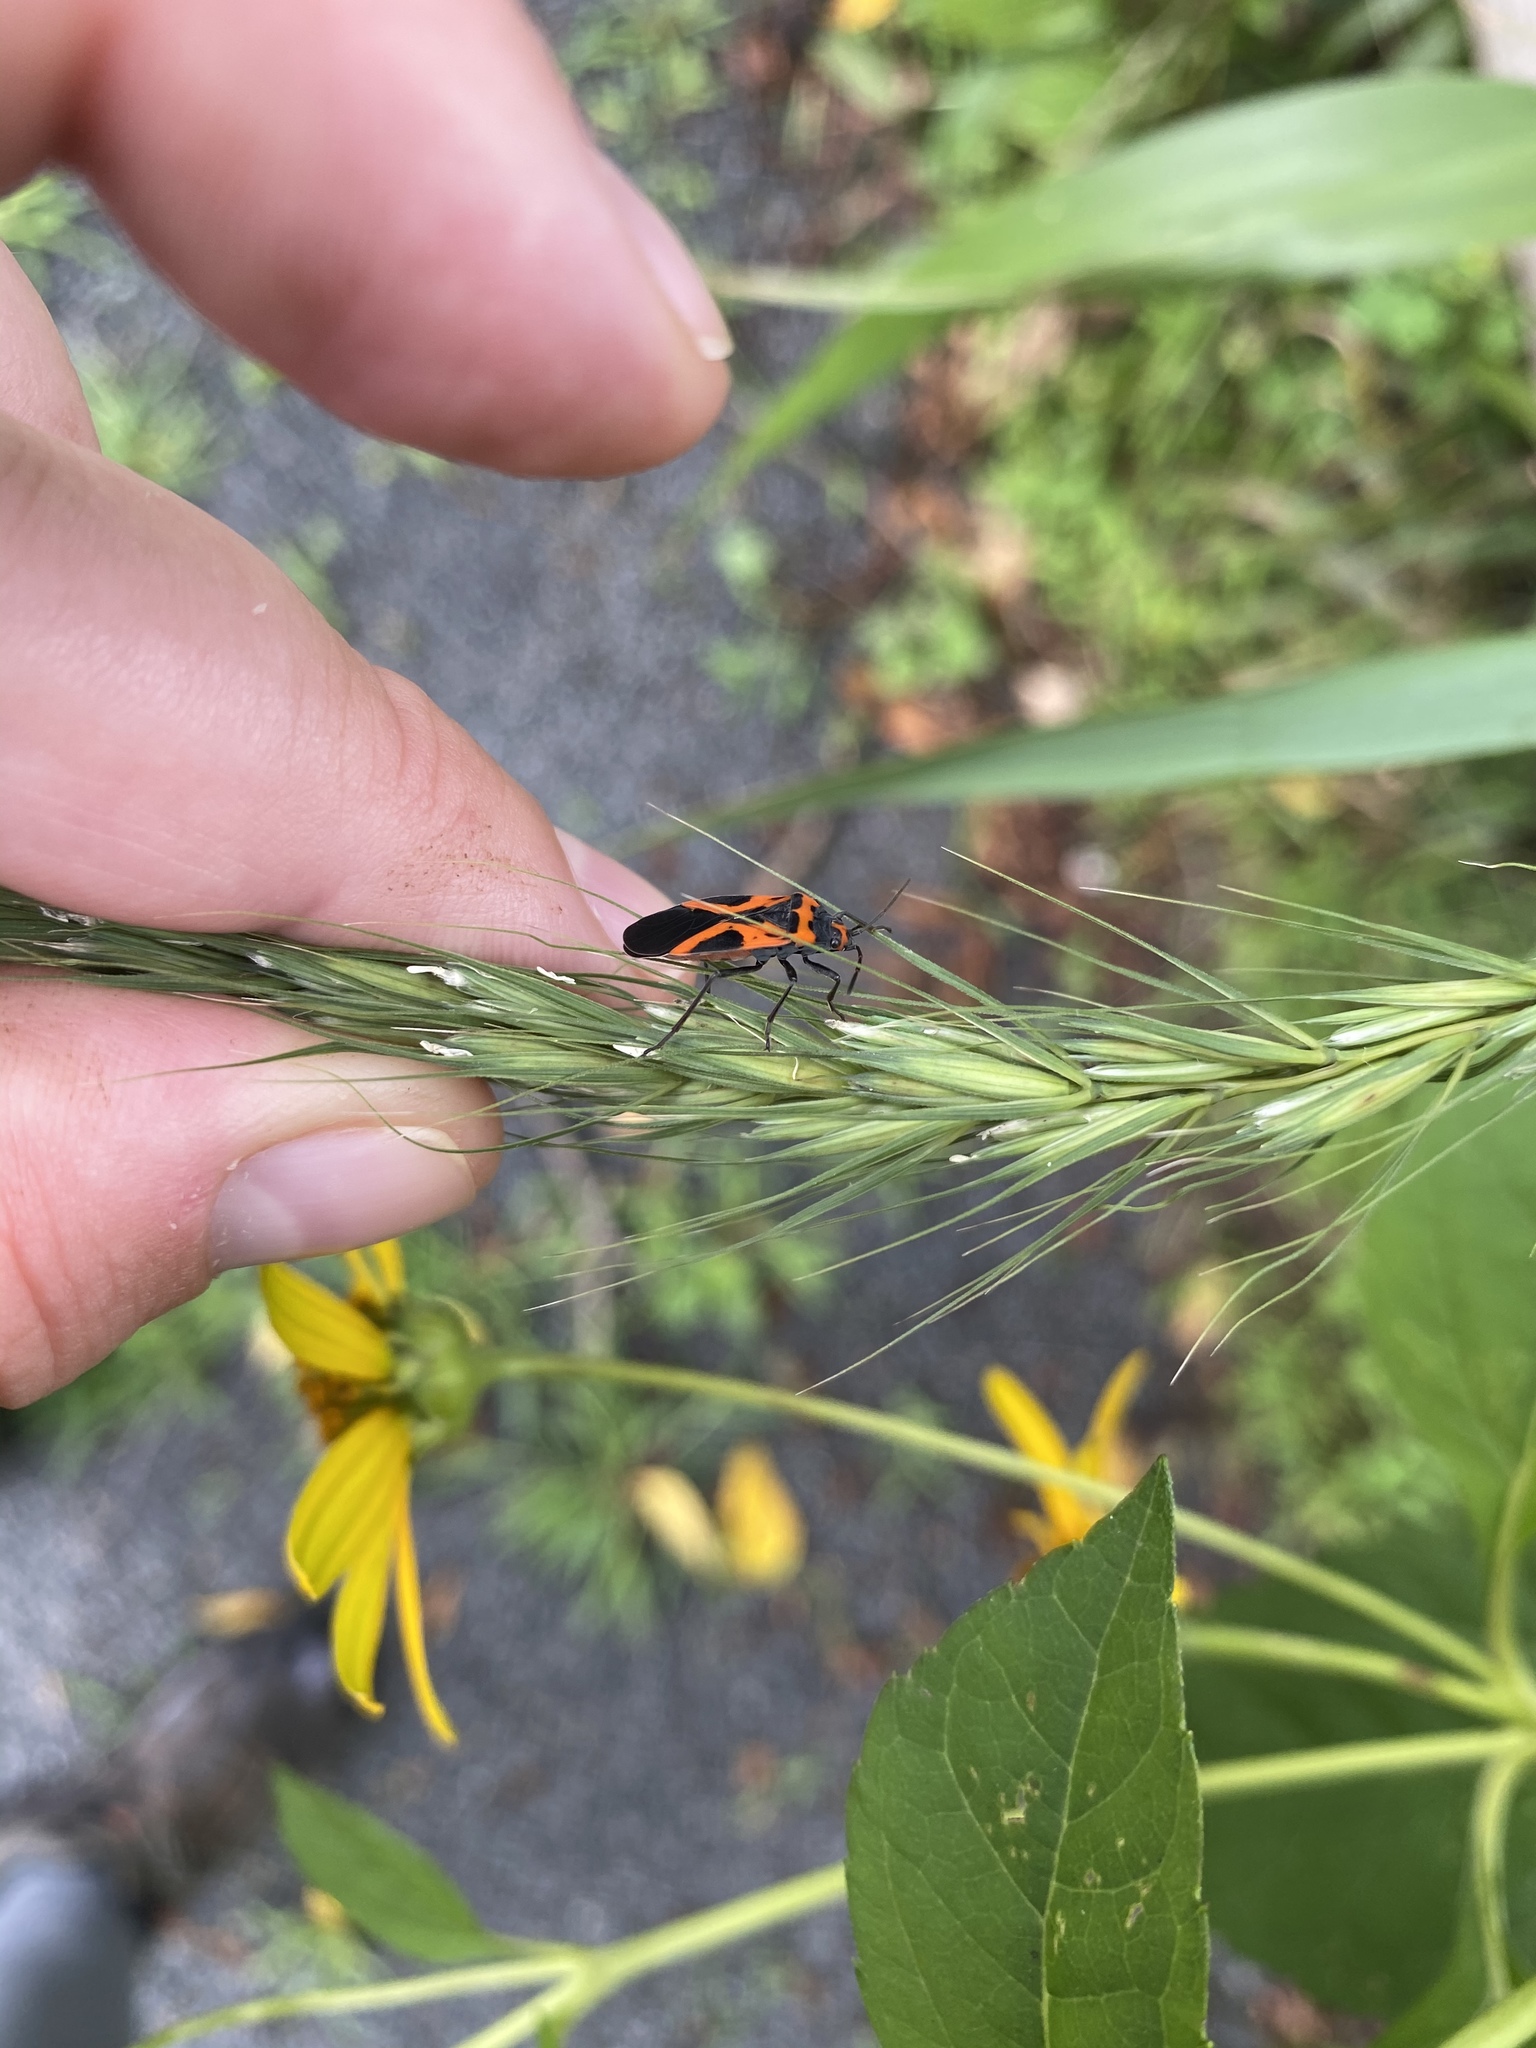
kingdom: Animalia
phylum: Arthropoda
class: Insecta
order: Hemiptera
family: Lygaeidae
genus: Lygaeus
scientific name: Lygaeus turcicus
